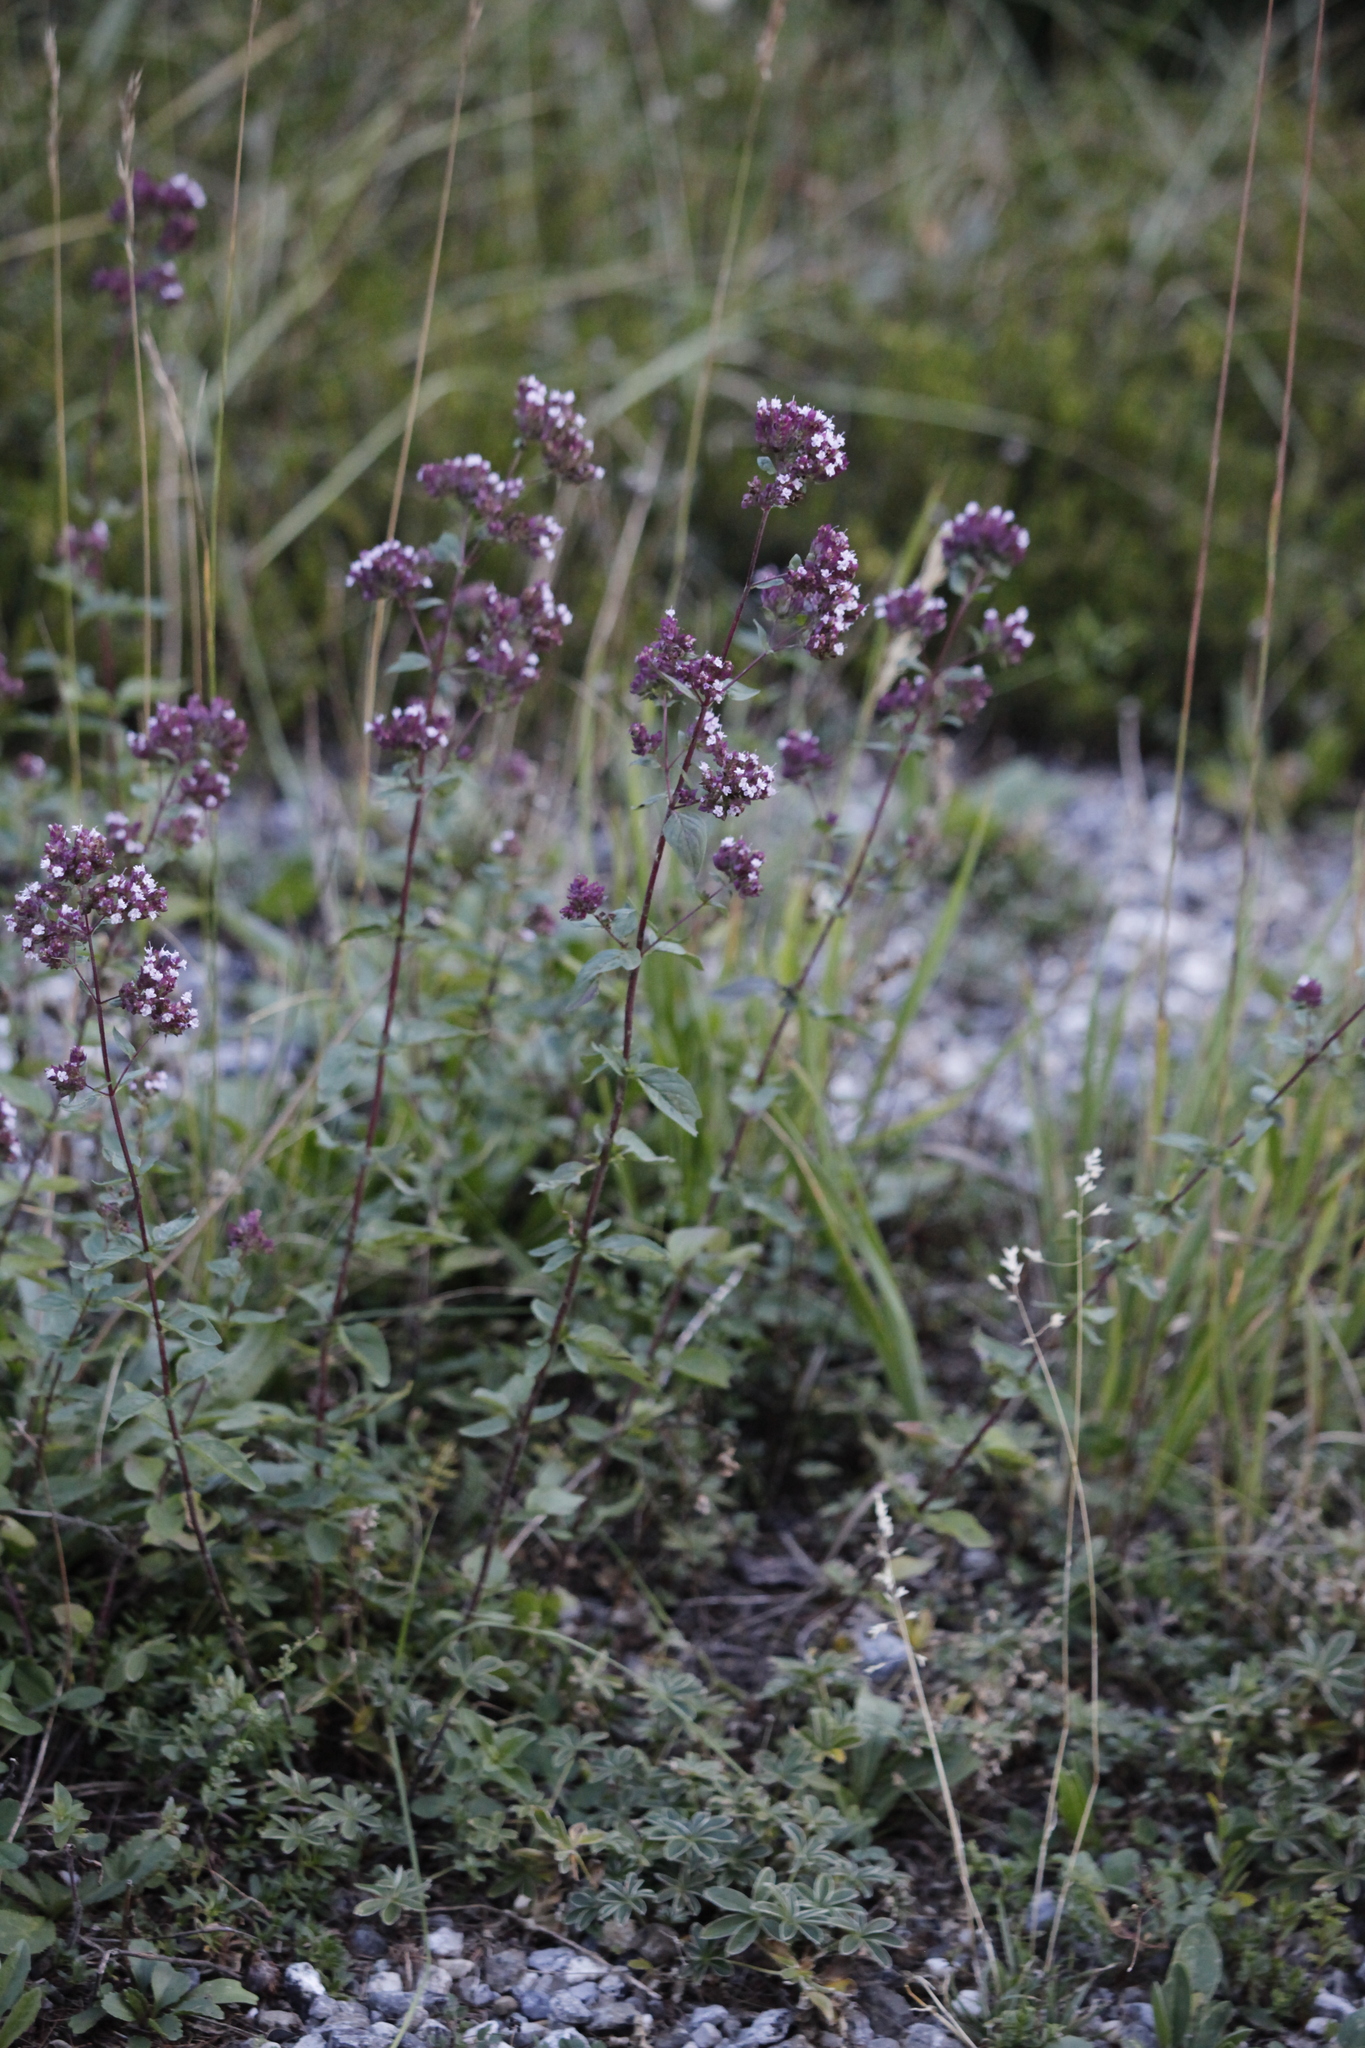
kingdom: Plantae
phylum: Tracheophyta
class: Magnoliopsida
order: Lamiales
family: Lamiaceae
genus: Origanum
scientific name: Origanum vulgare
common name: Wild marjoram
